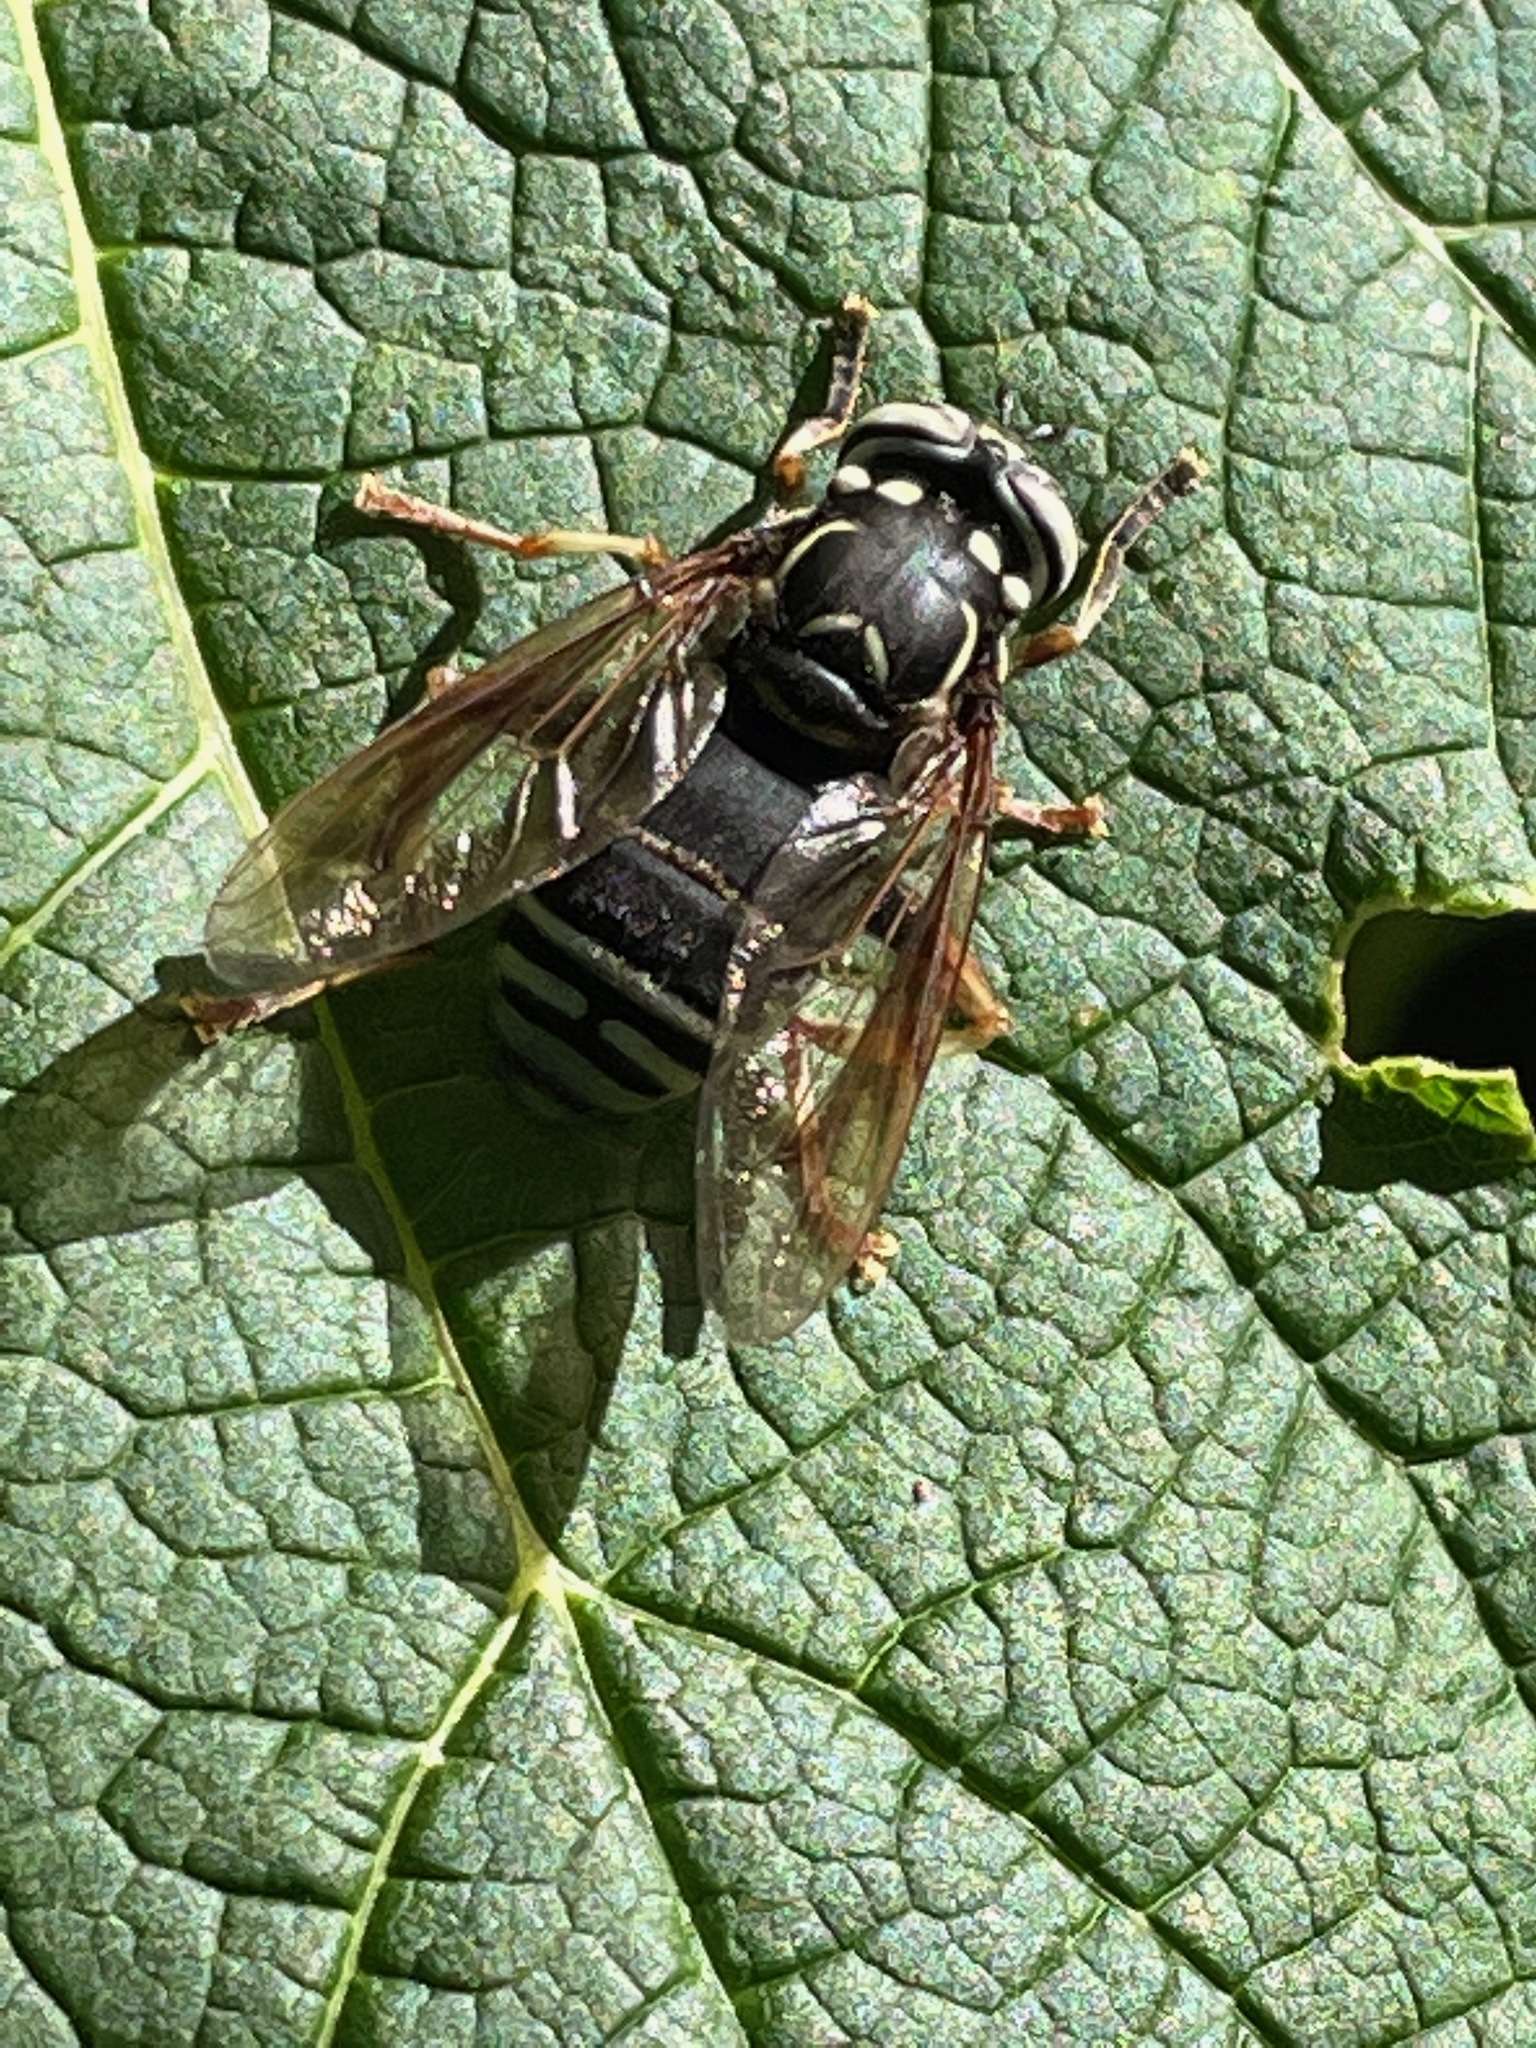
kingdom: Animalia
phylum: Arthropoda
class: Insecta
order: Diptera
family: Syrphidae
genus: Spilomyia
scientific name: Spilomyia fusca
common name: Bald-faced hornet fly
